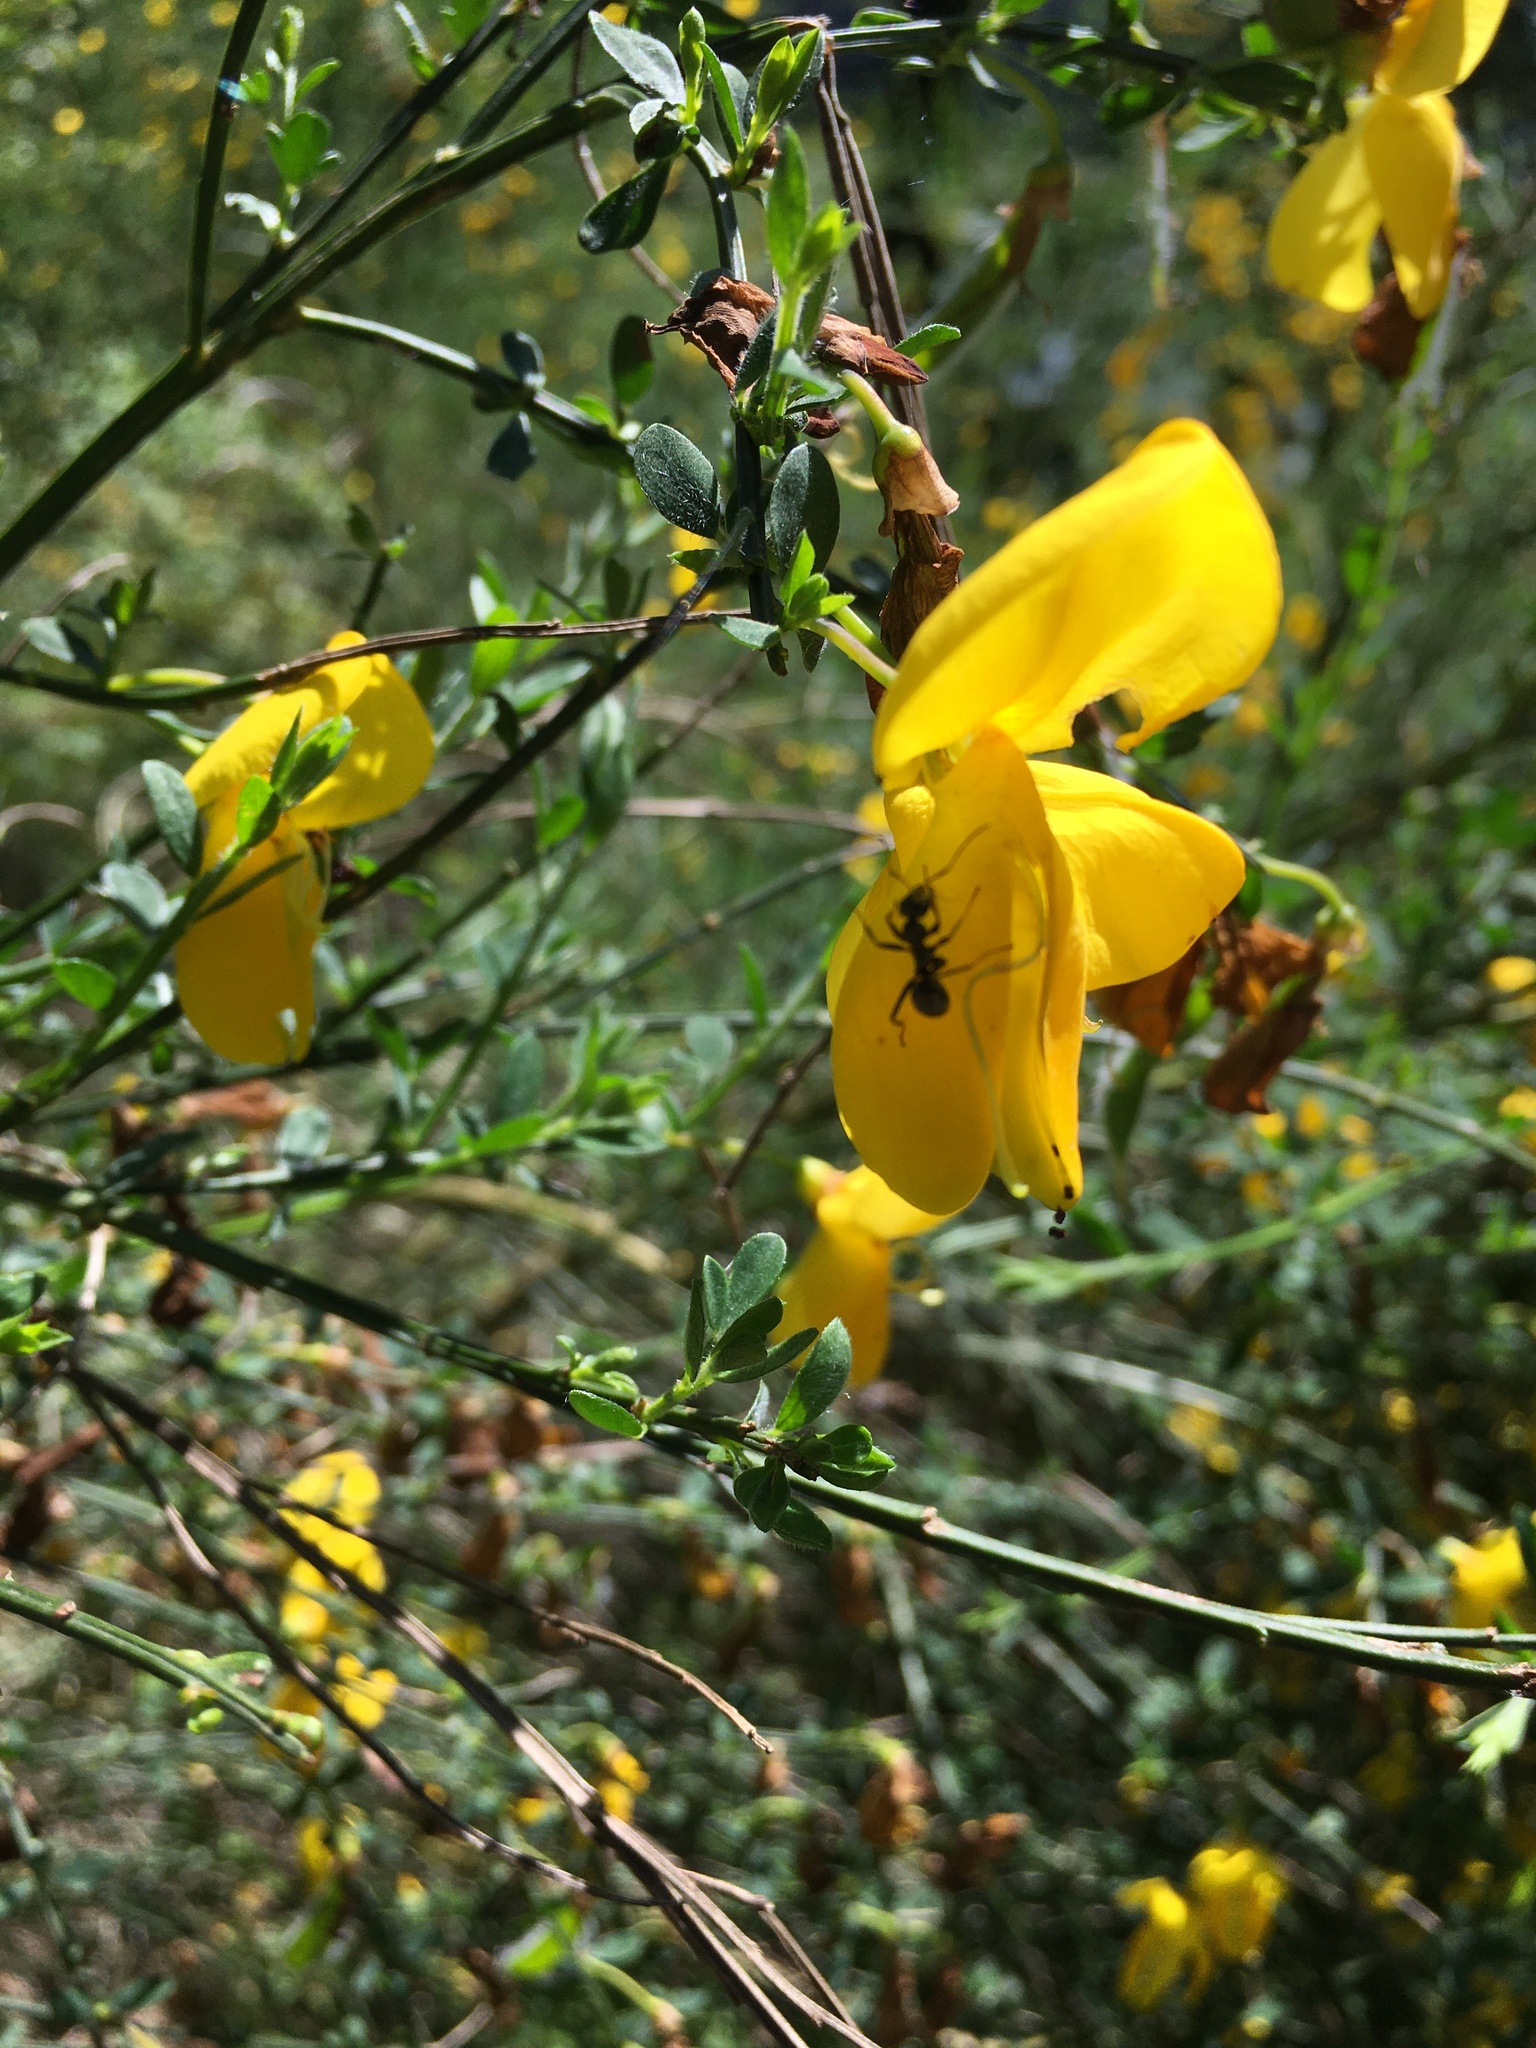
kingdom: Plantae
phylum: Tracheophyta
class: Magnoliopsida
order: Fabales
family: Fabaceae
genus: Cytisus
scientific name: Cytisus scoparius
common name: Scotch broom
